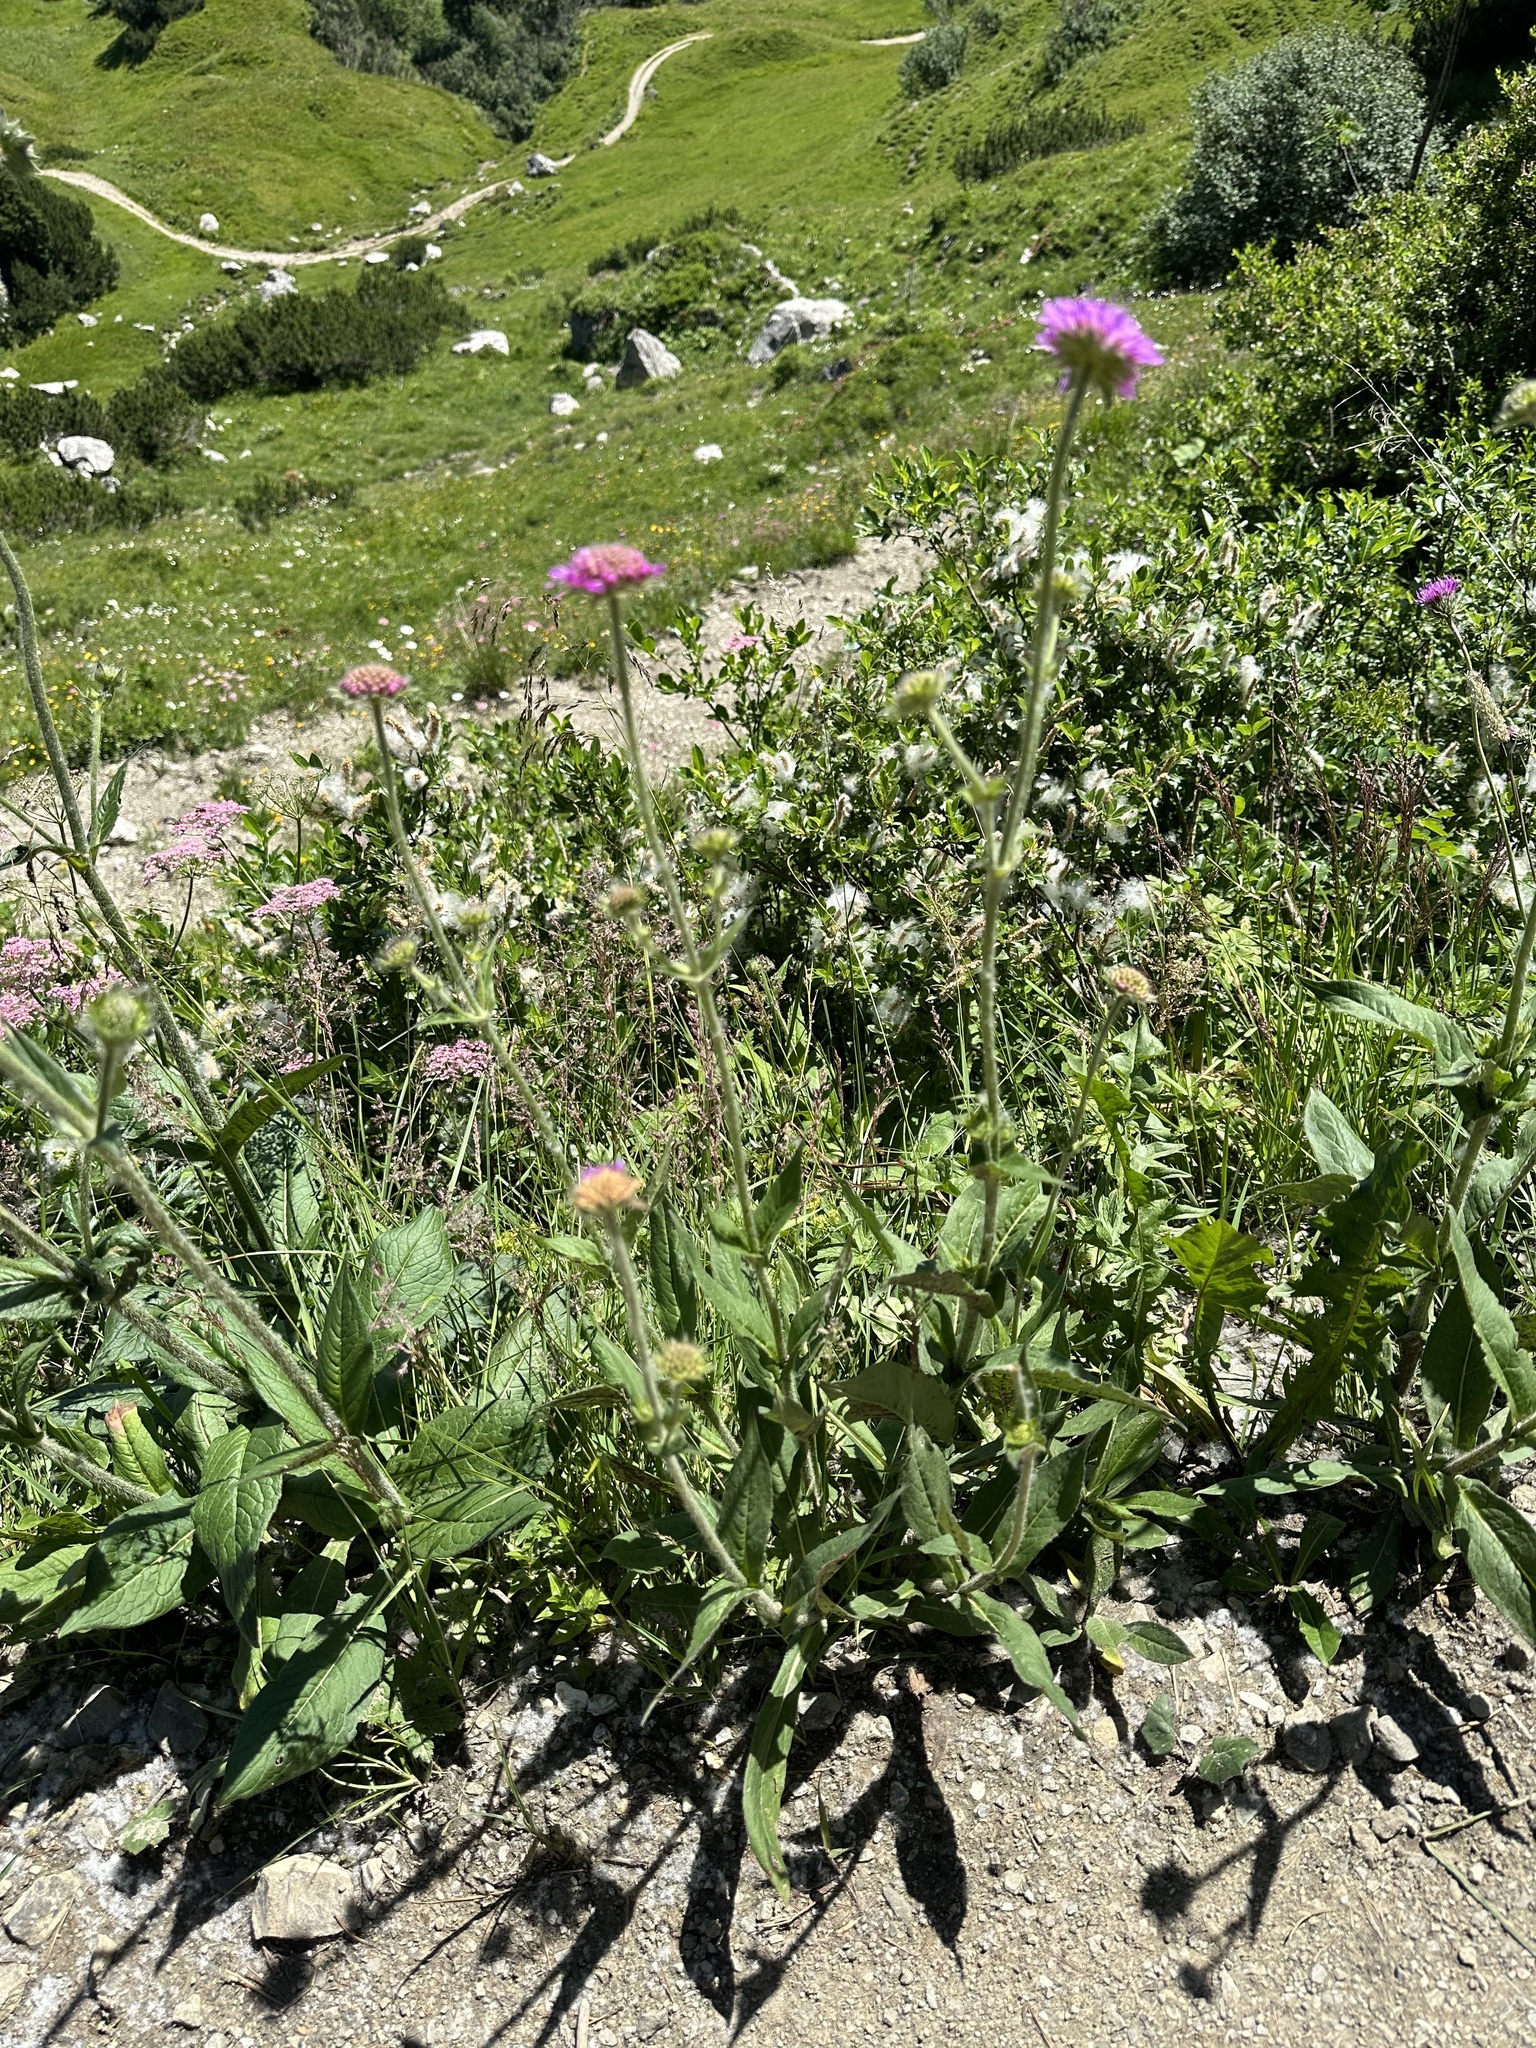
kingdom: Plantae
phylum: Tracheophyta
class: Magnoliopsida
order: Dipsacales
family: Caprifoliaceae
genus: Knautia
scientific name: Knautia dipsacifolia
